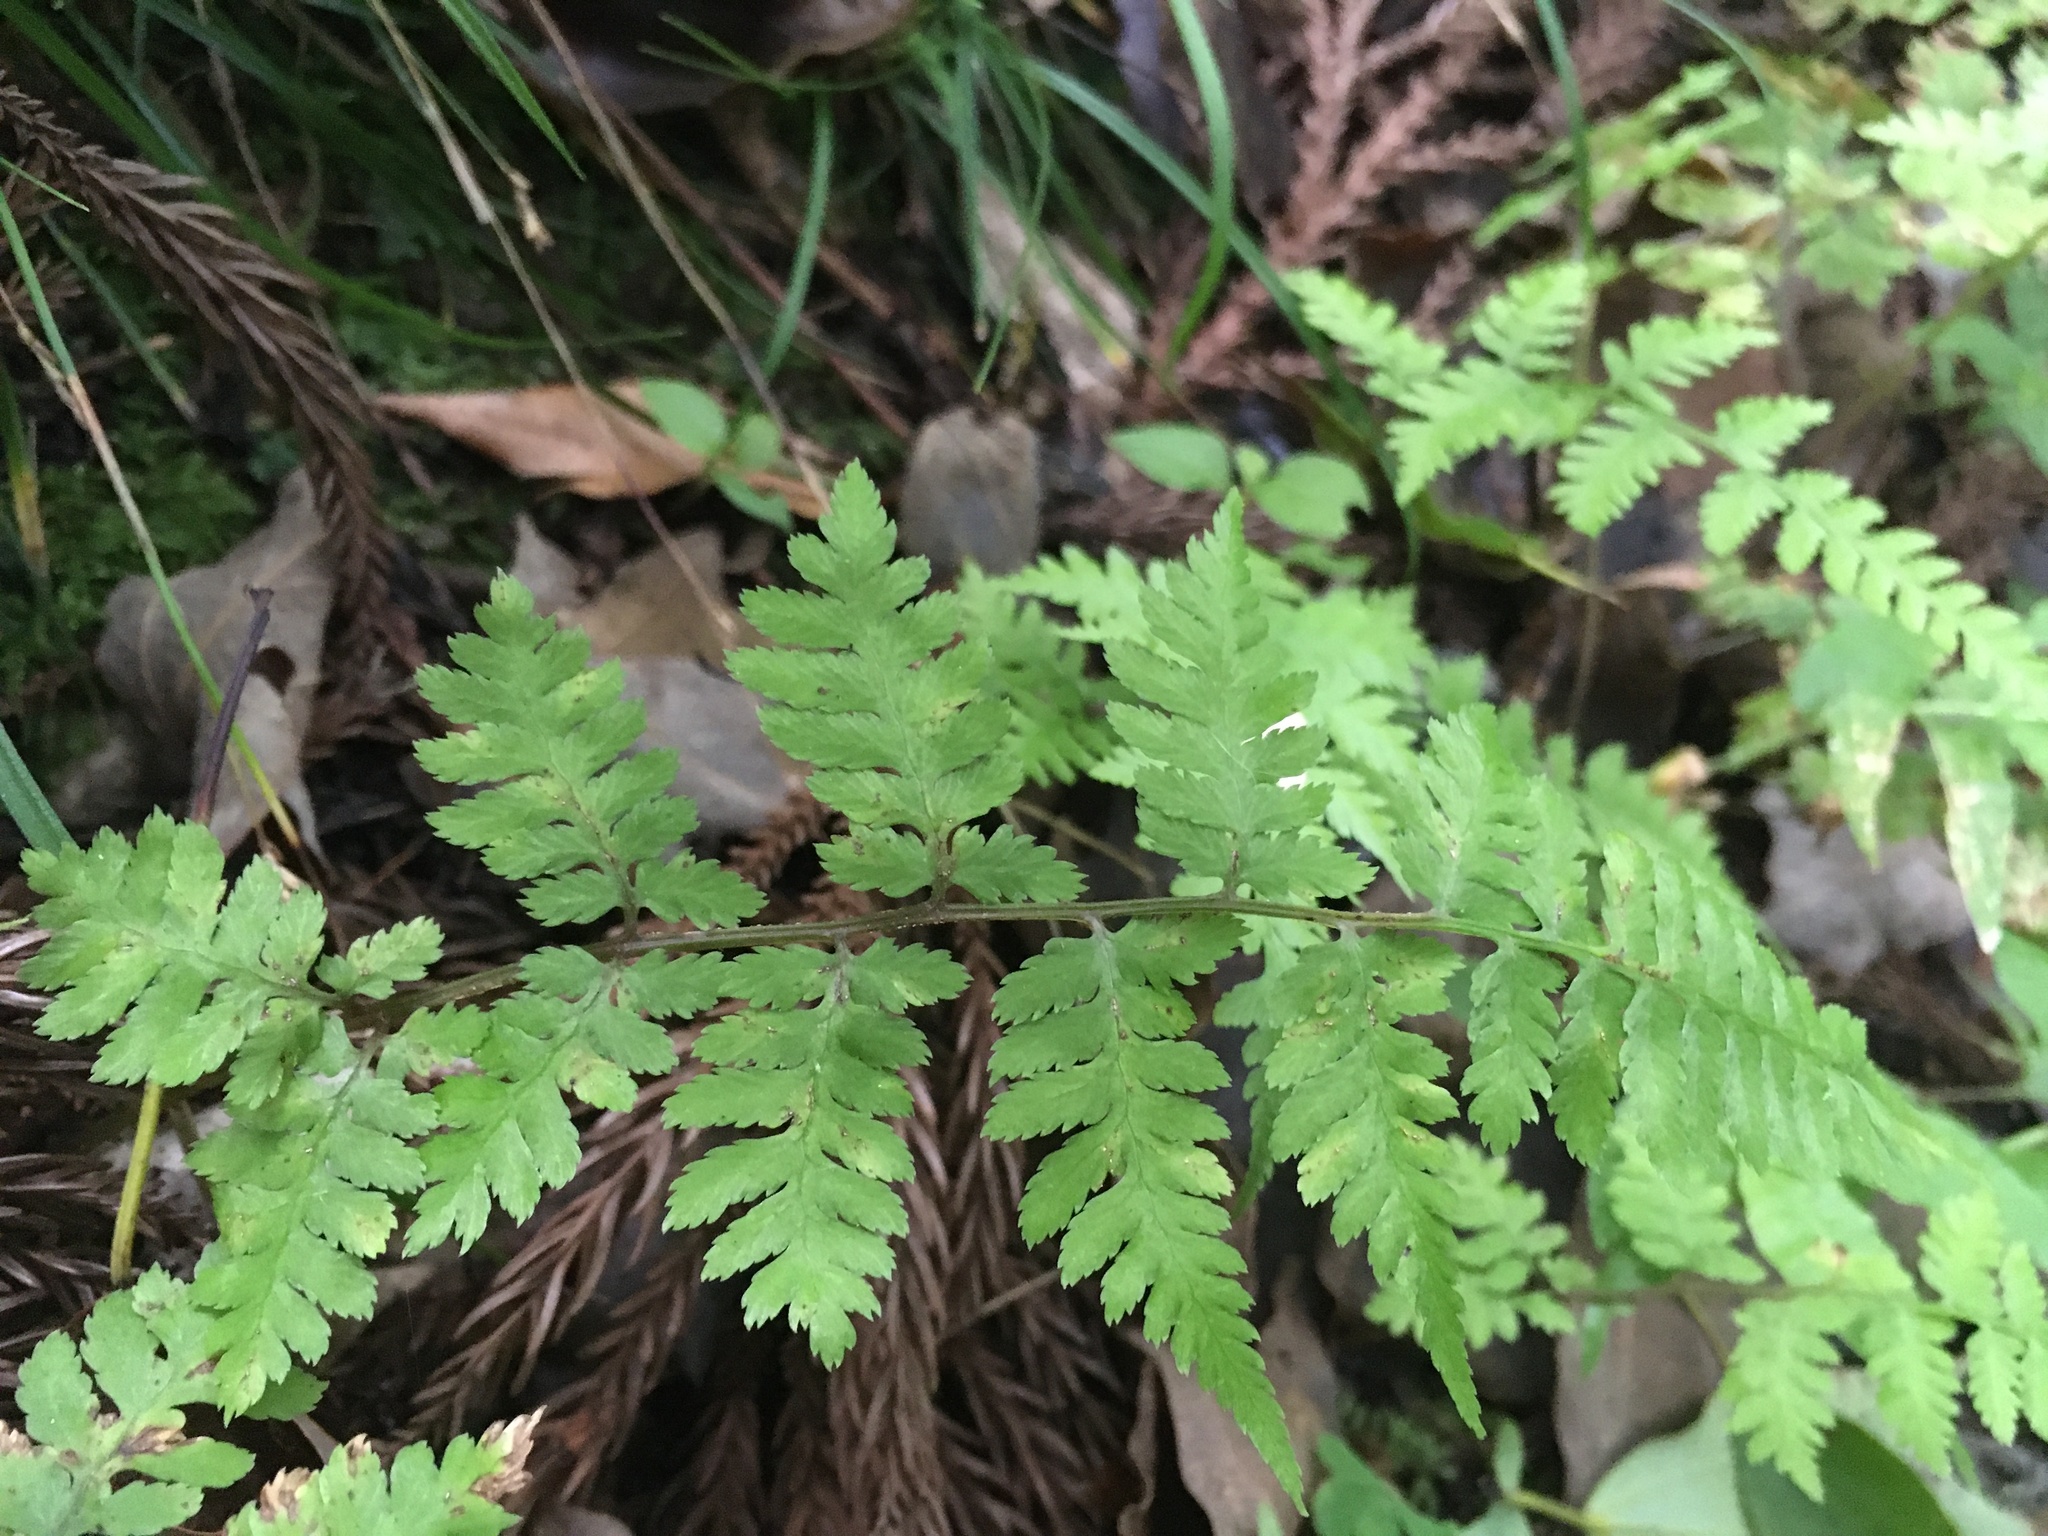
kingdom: Plantae
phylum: Tracheophyta
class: Polypodiopsida
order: Polypodiales
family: Athyriaceae
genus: Anisocampium
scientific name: Anisocampium niponicum
